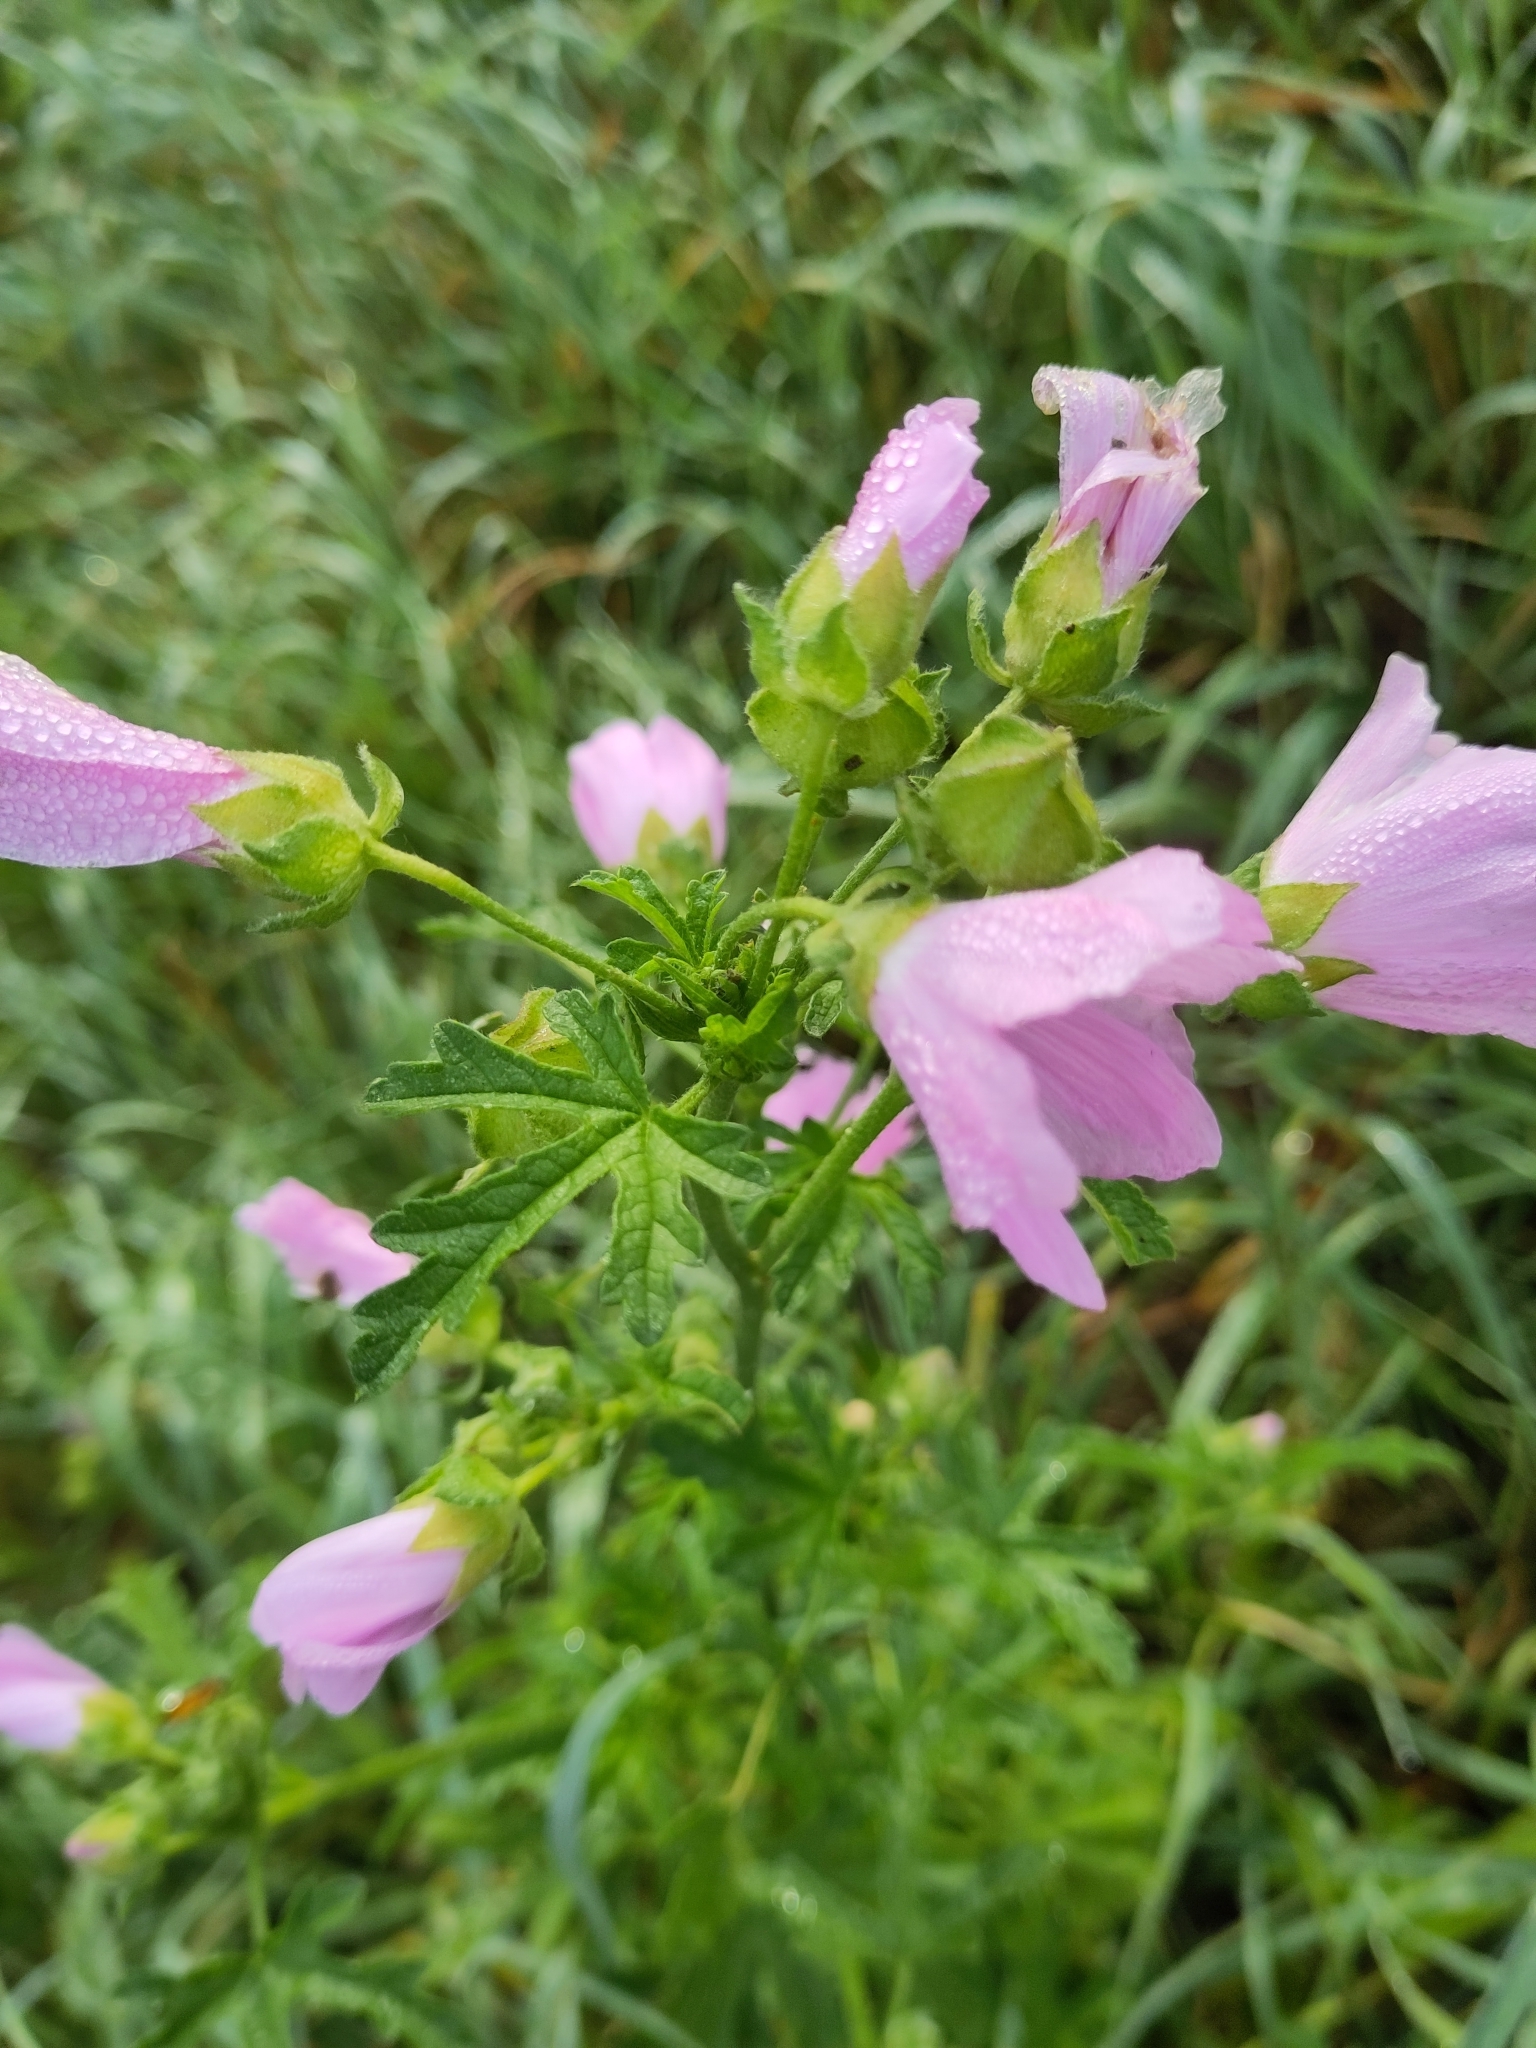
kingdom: Plantae
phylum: Tracheophyta
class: Magnoliopsida
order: Malvales
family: Malvaceae
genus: Malva
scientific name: Malva alcea
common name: Greater musk-mallow
